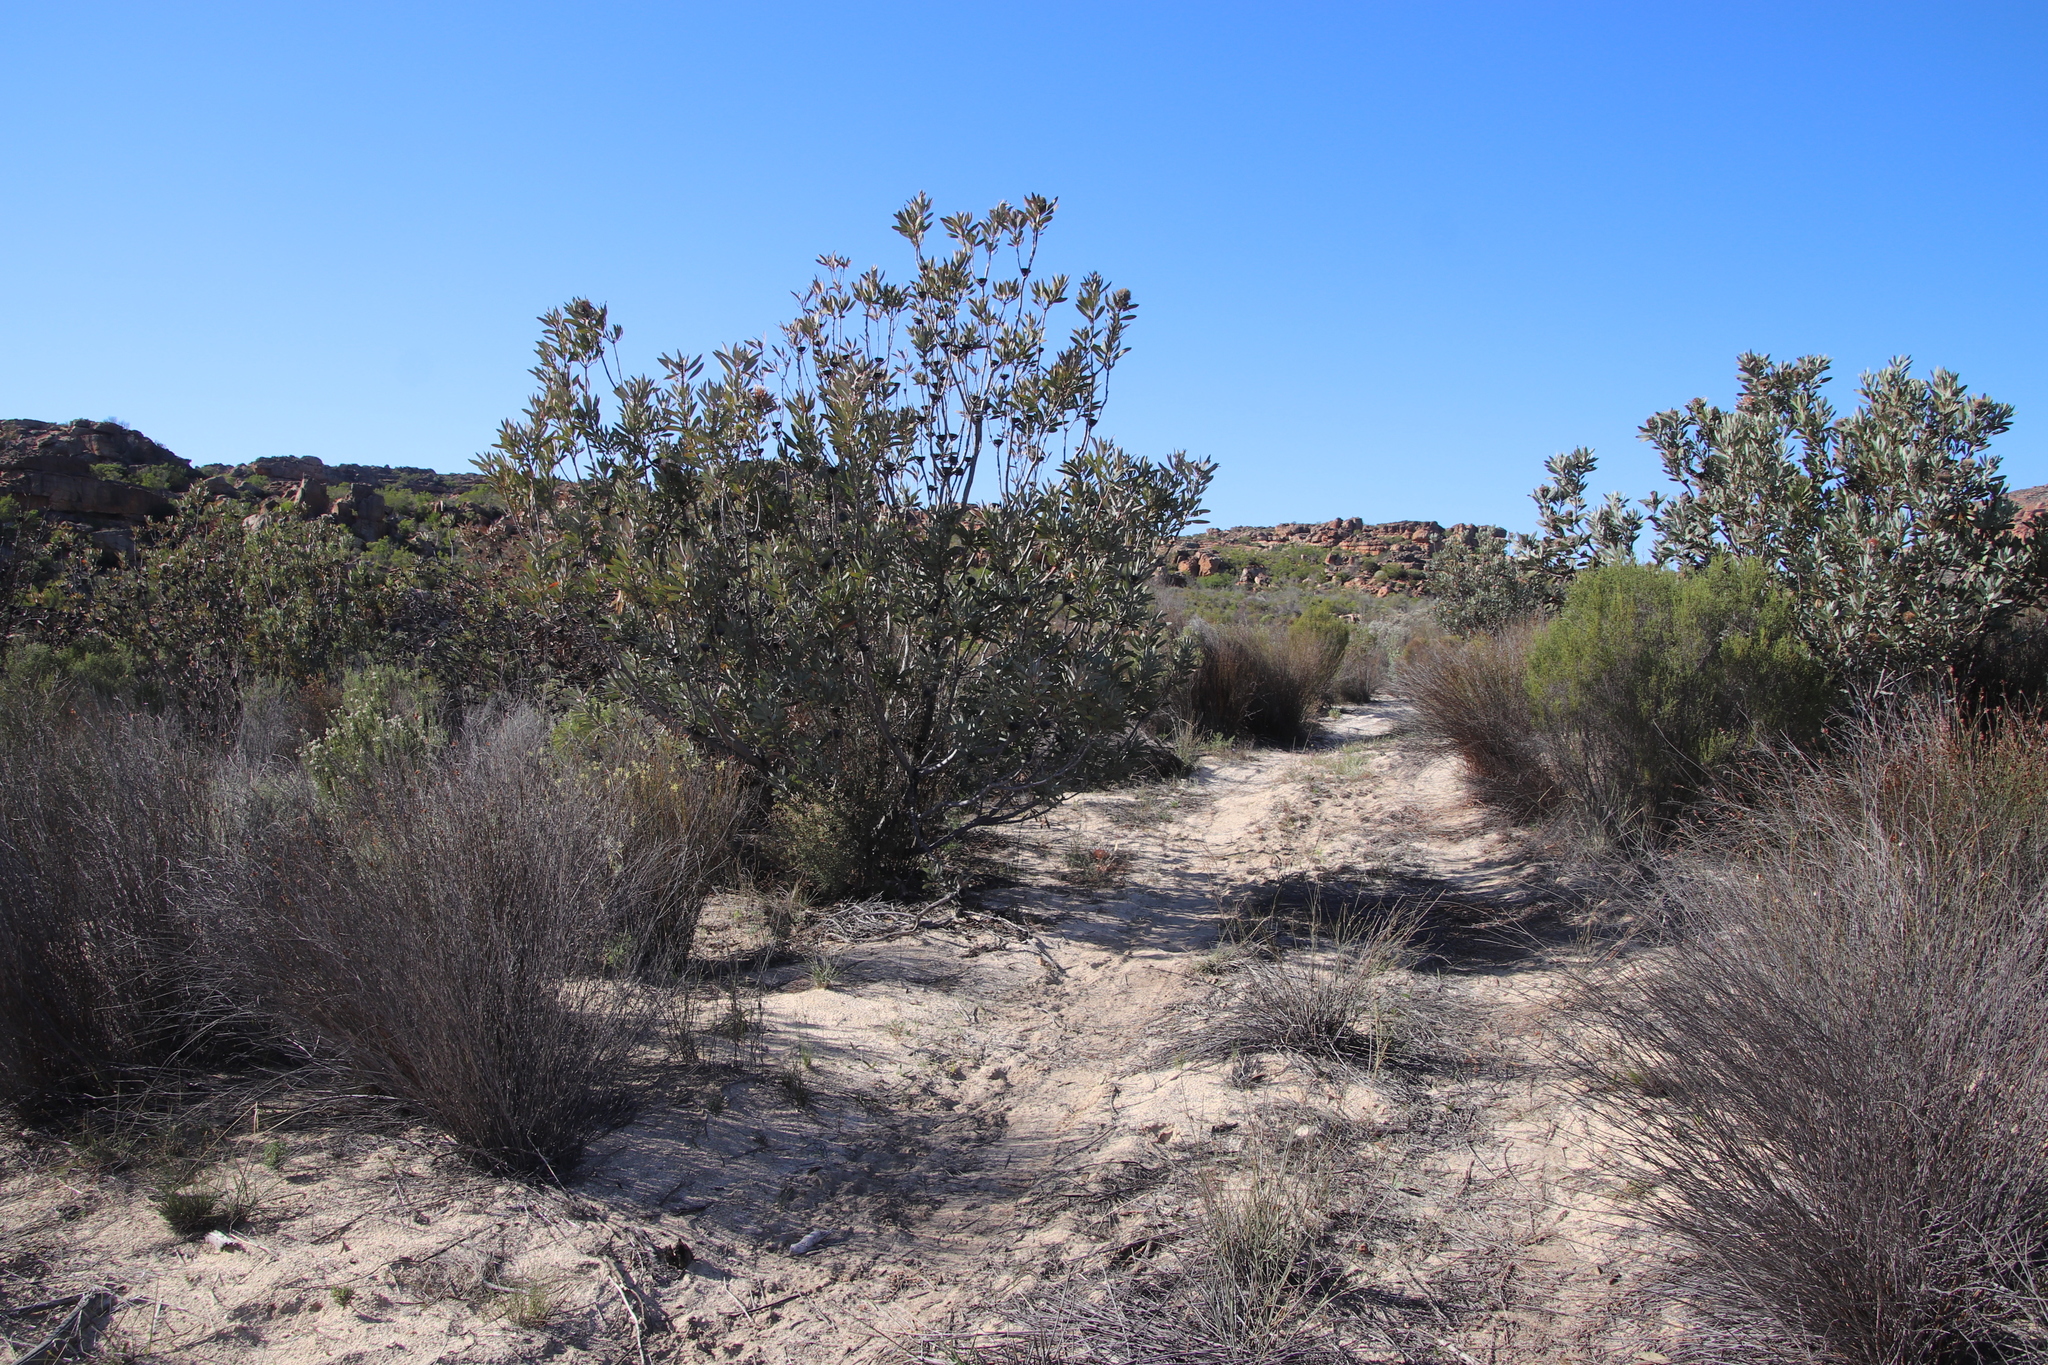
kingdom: Plantae
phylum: Tracheophyta
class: Magnoliopsida
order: Proteales
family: Proteaceae
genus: Protea
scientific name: Protea laurifolia
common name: Grey-leaf sugarbsh
